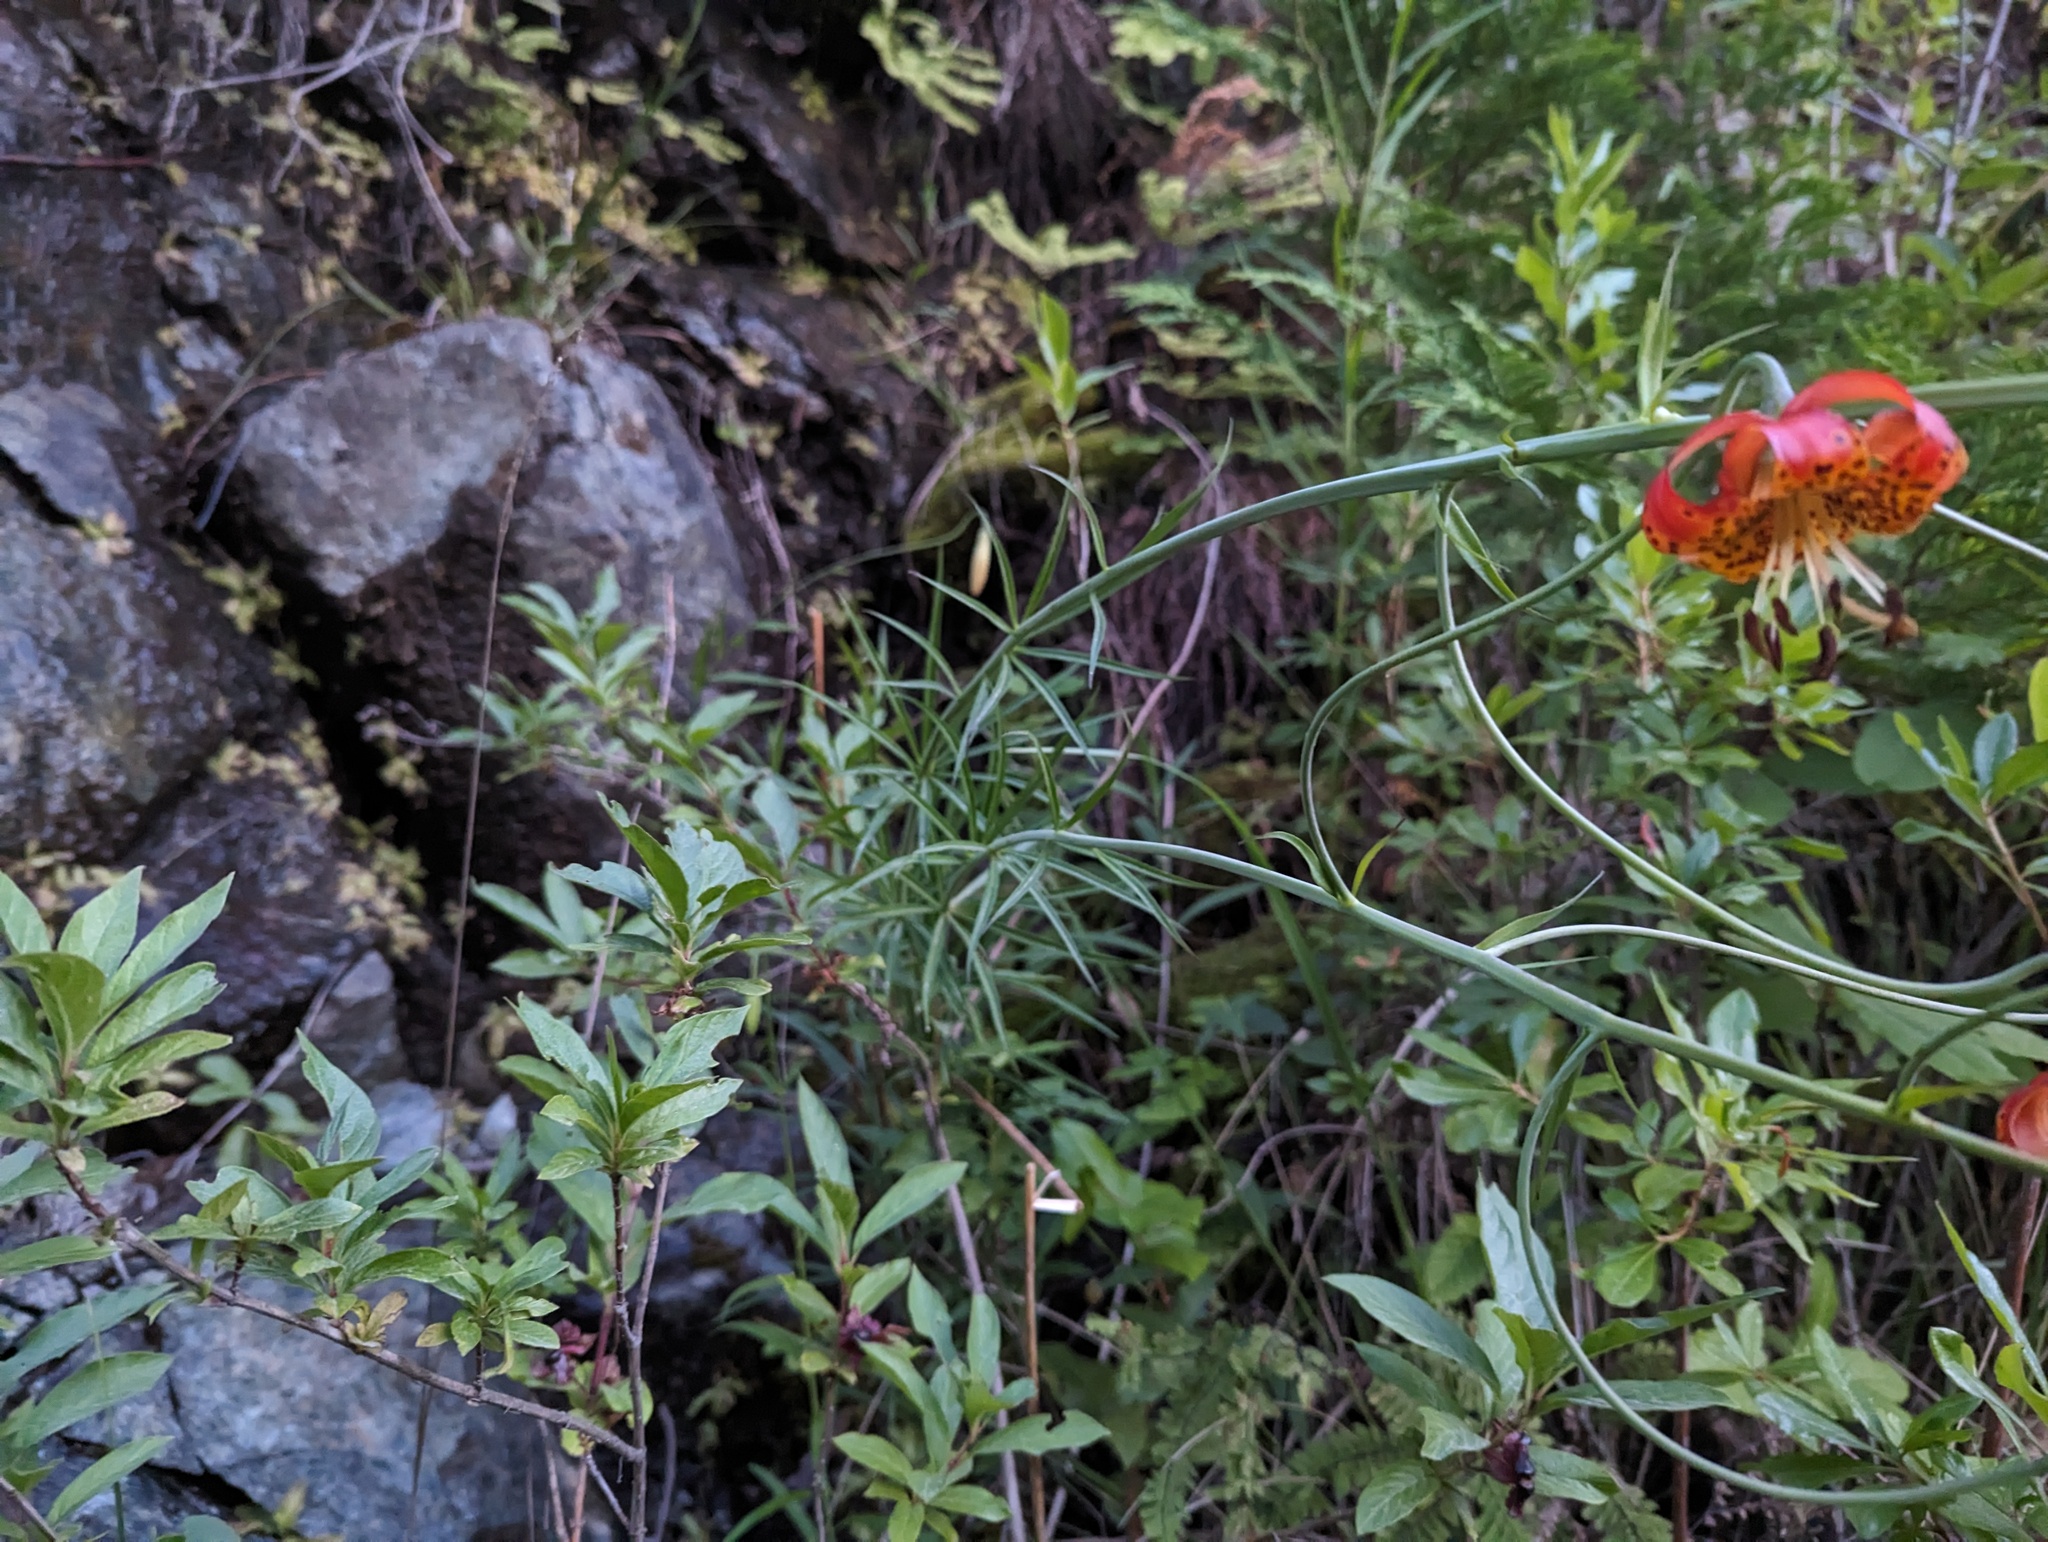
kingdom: Plantae
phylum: Tracheophyta
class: Liliopsida
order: Liliales
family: Liliaceae
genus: Lilium
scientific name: Lilium pardalinum
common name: Panther lily
